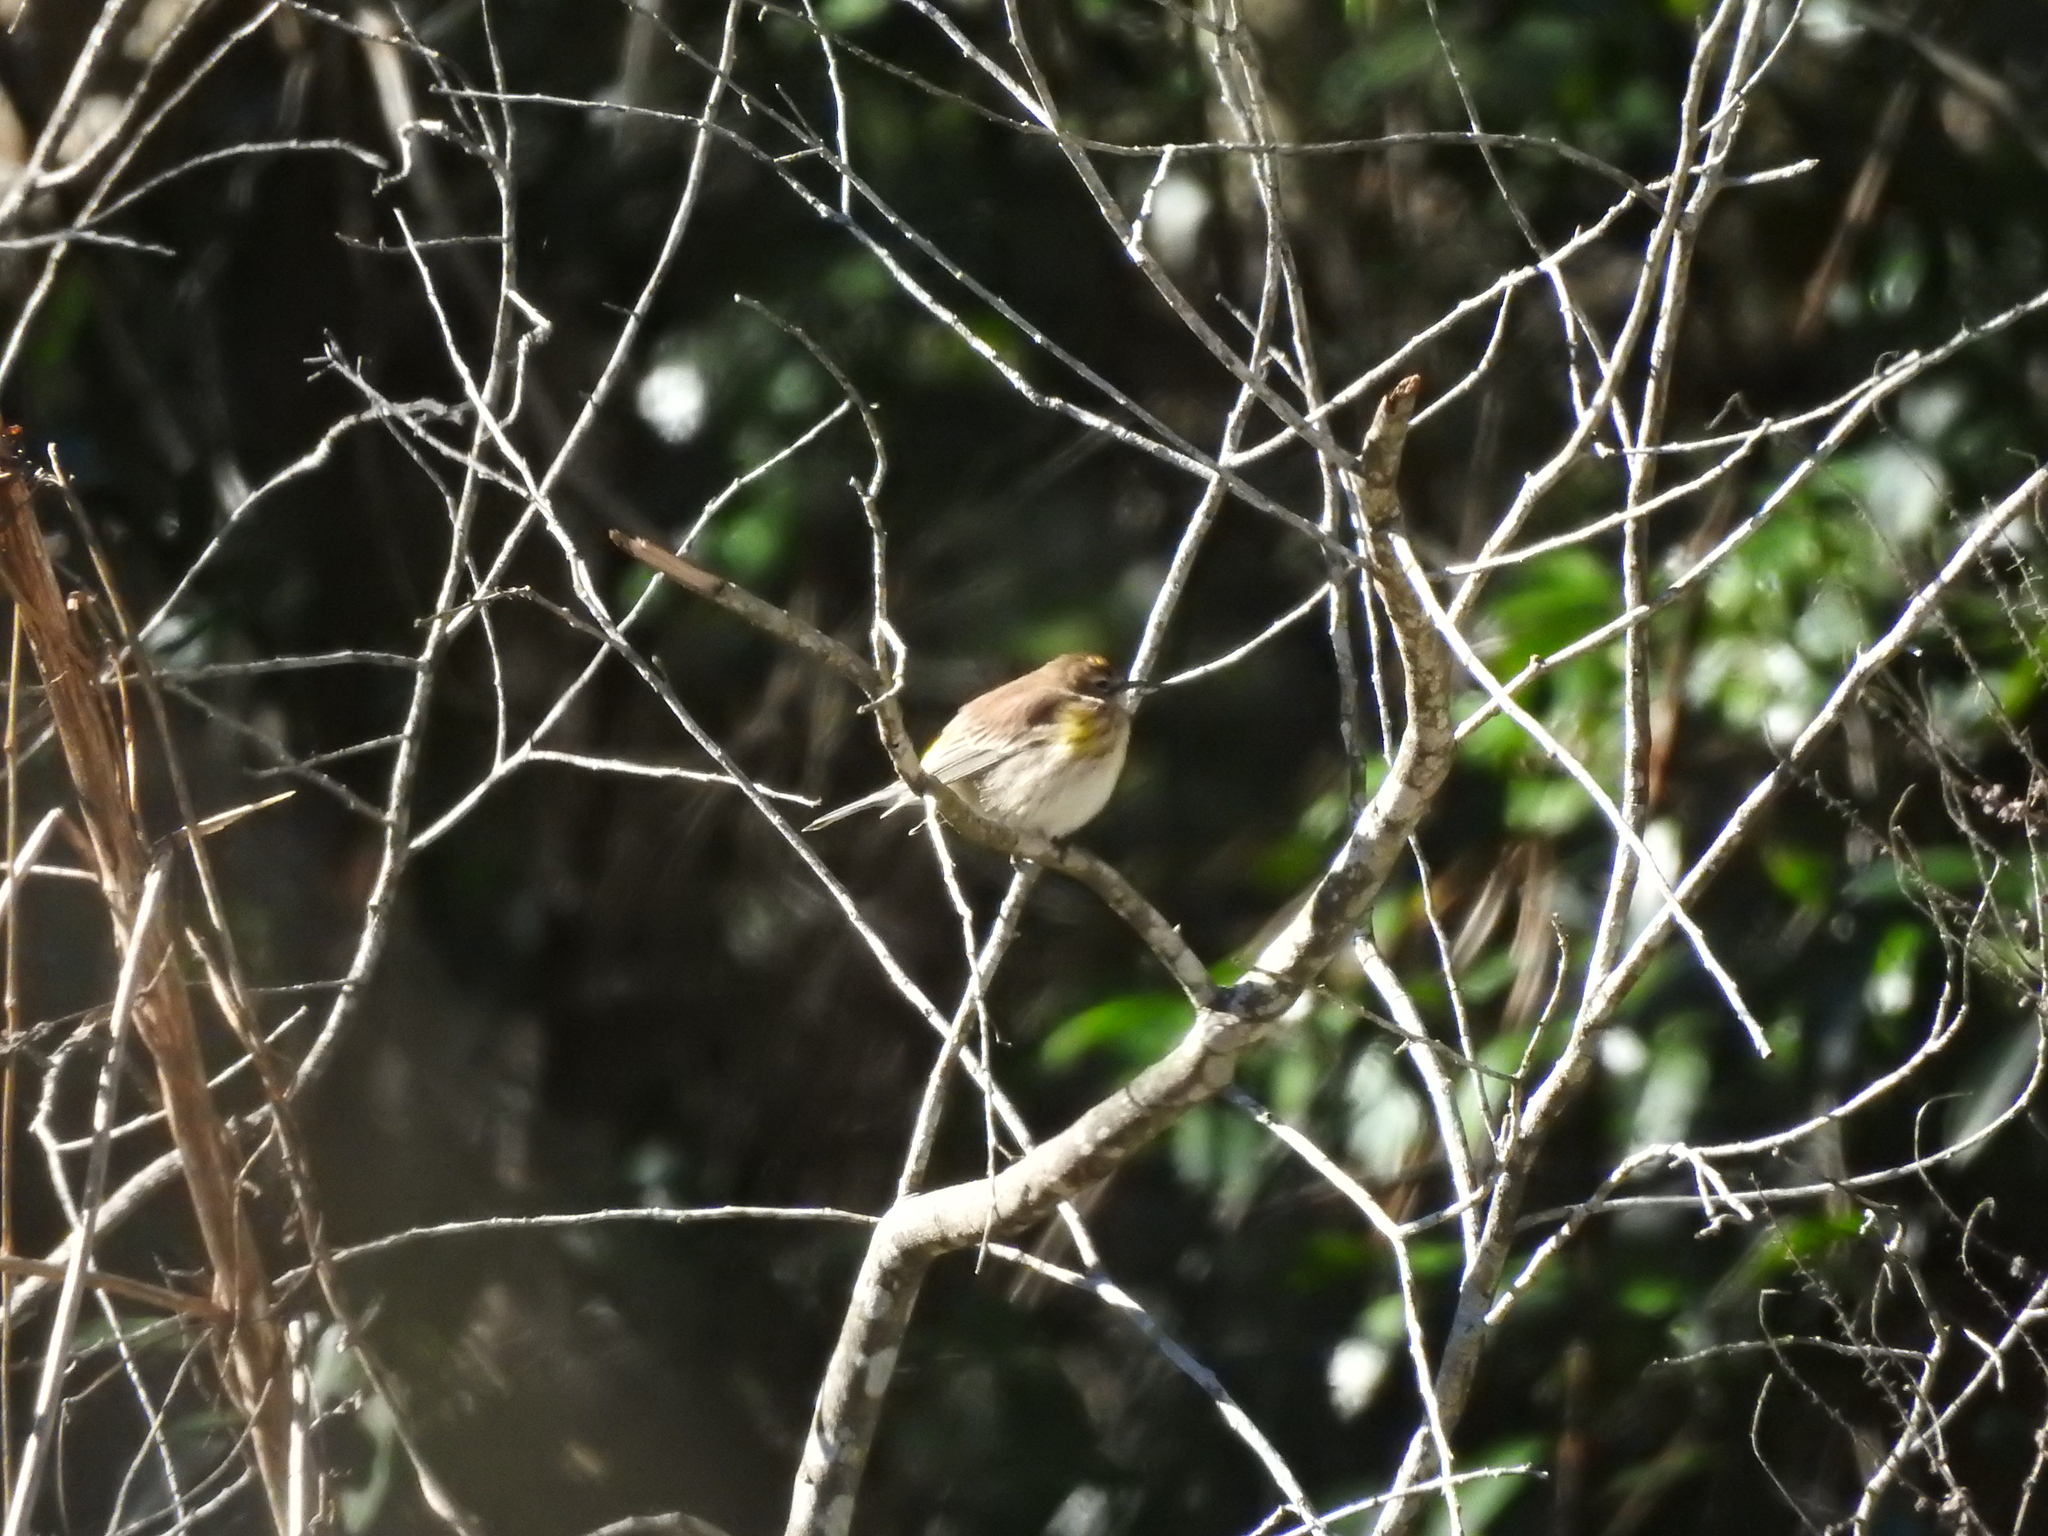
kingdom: Animalia
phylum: Chordata
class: Aves
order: Passeriformes
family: Parulidae
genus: Setophaga
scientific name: Setophaga coronata
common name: Myrtle warbler
